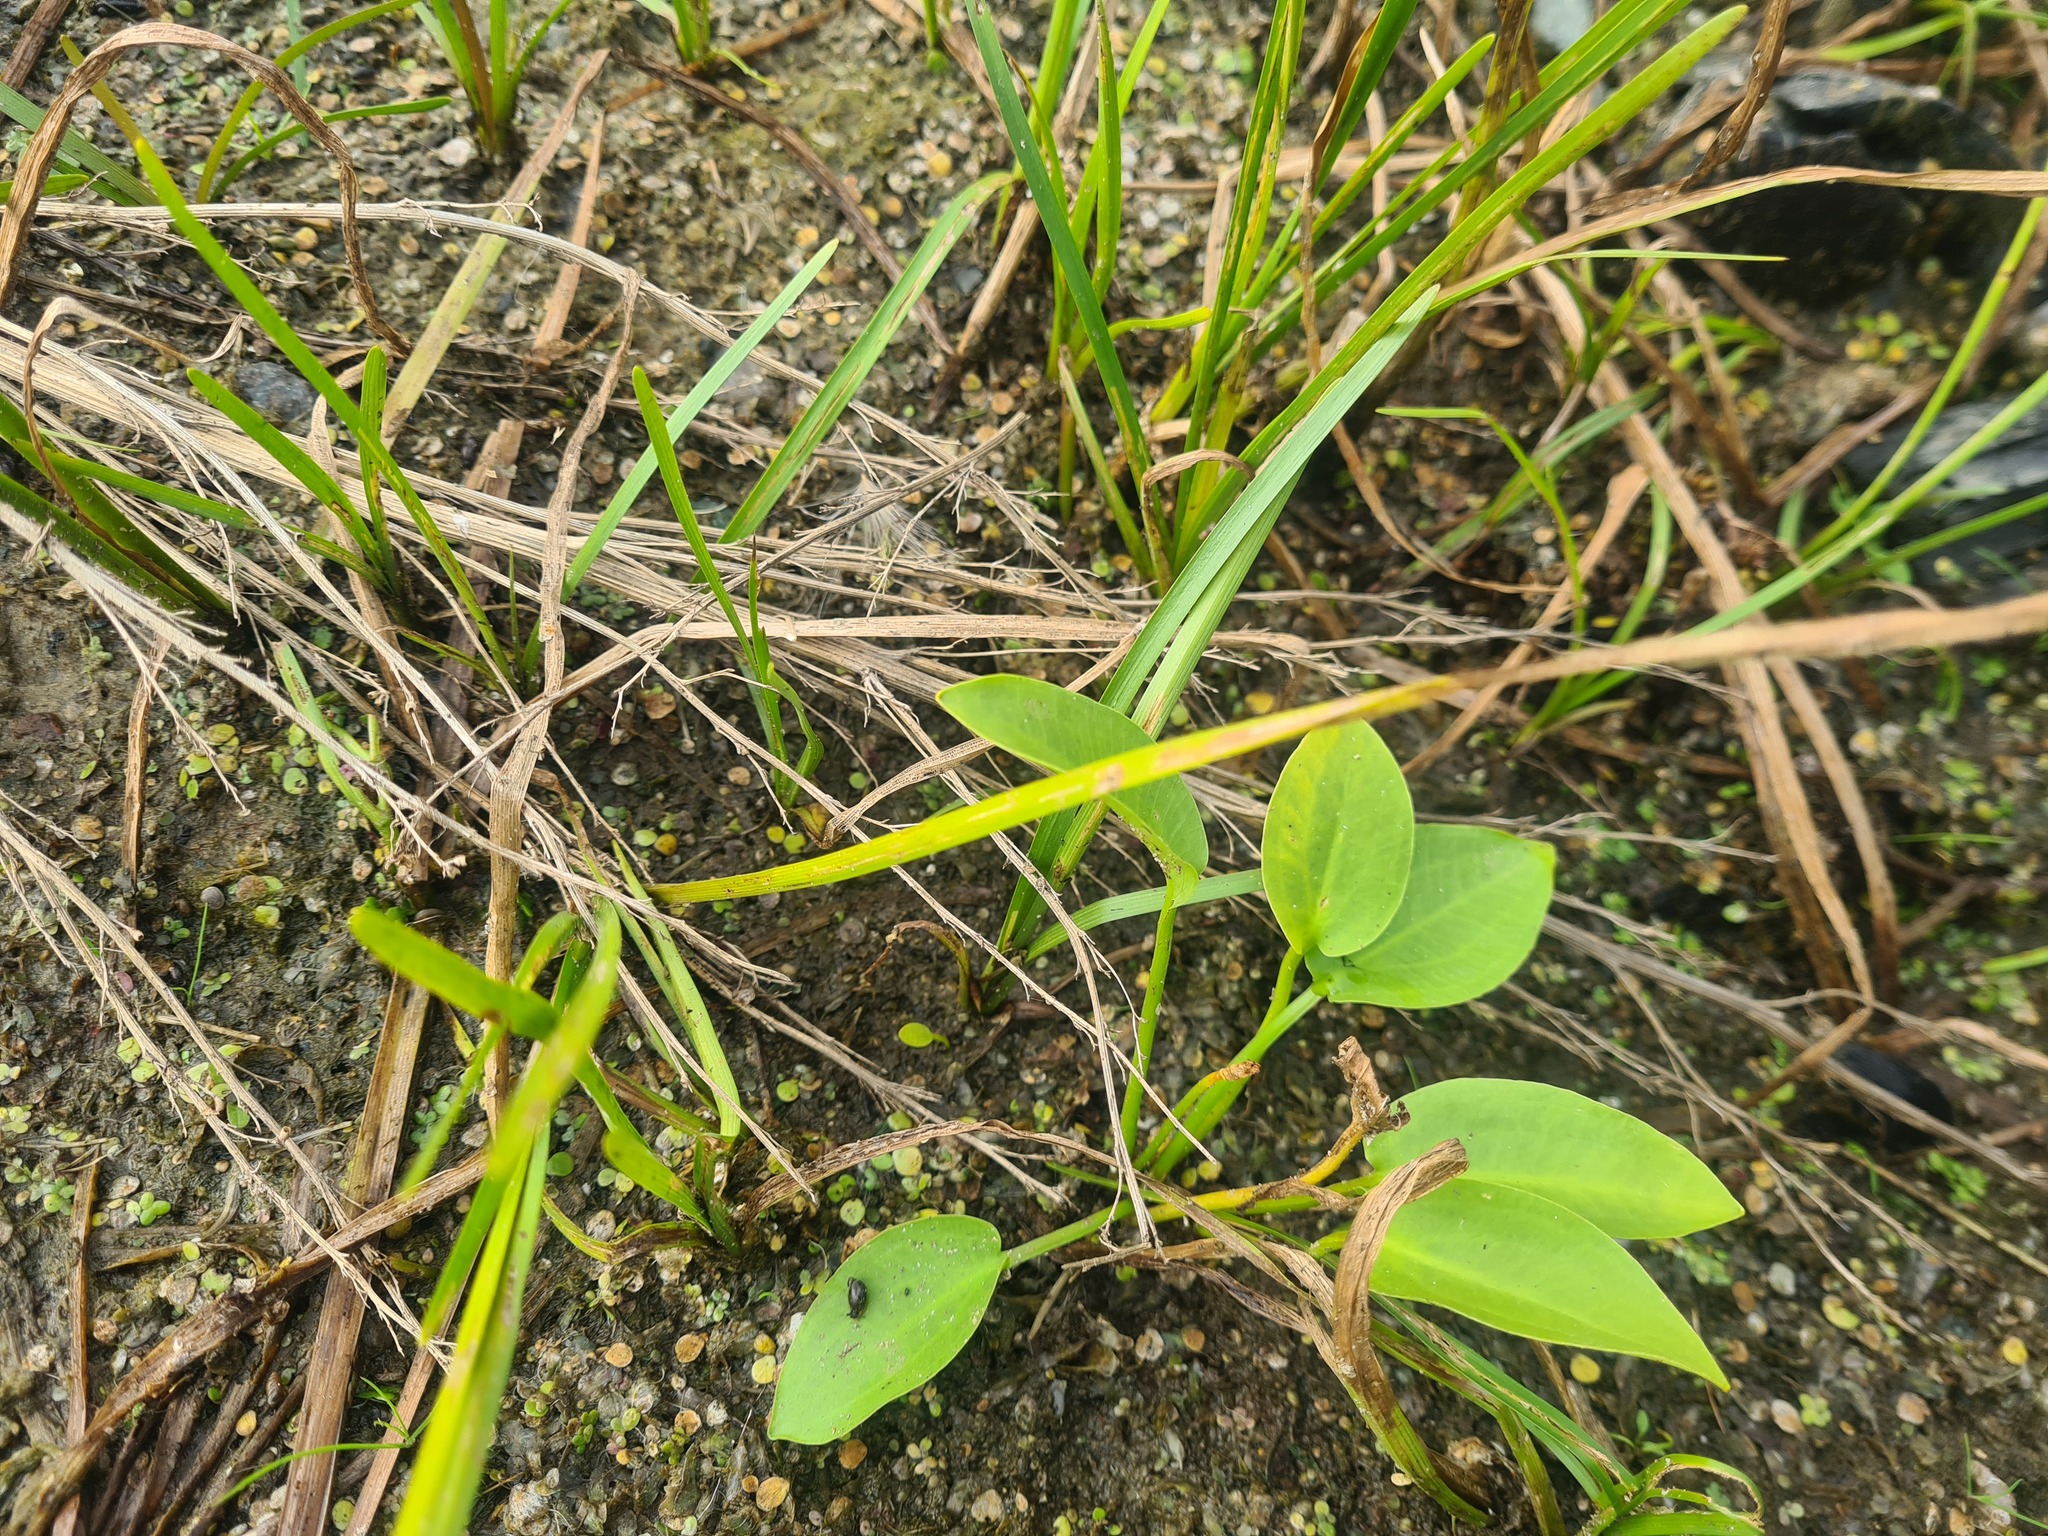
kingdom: Plantae
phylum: Tracheophyta
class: Liliopsida
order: Alismatales
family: Alismataceae
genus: Alisma
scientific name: Alisma plantago-aquatica
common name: Water-plantain
